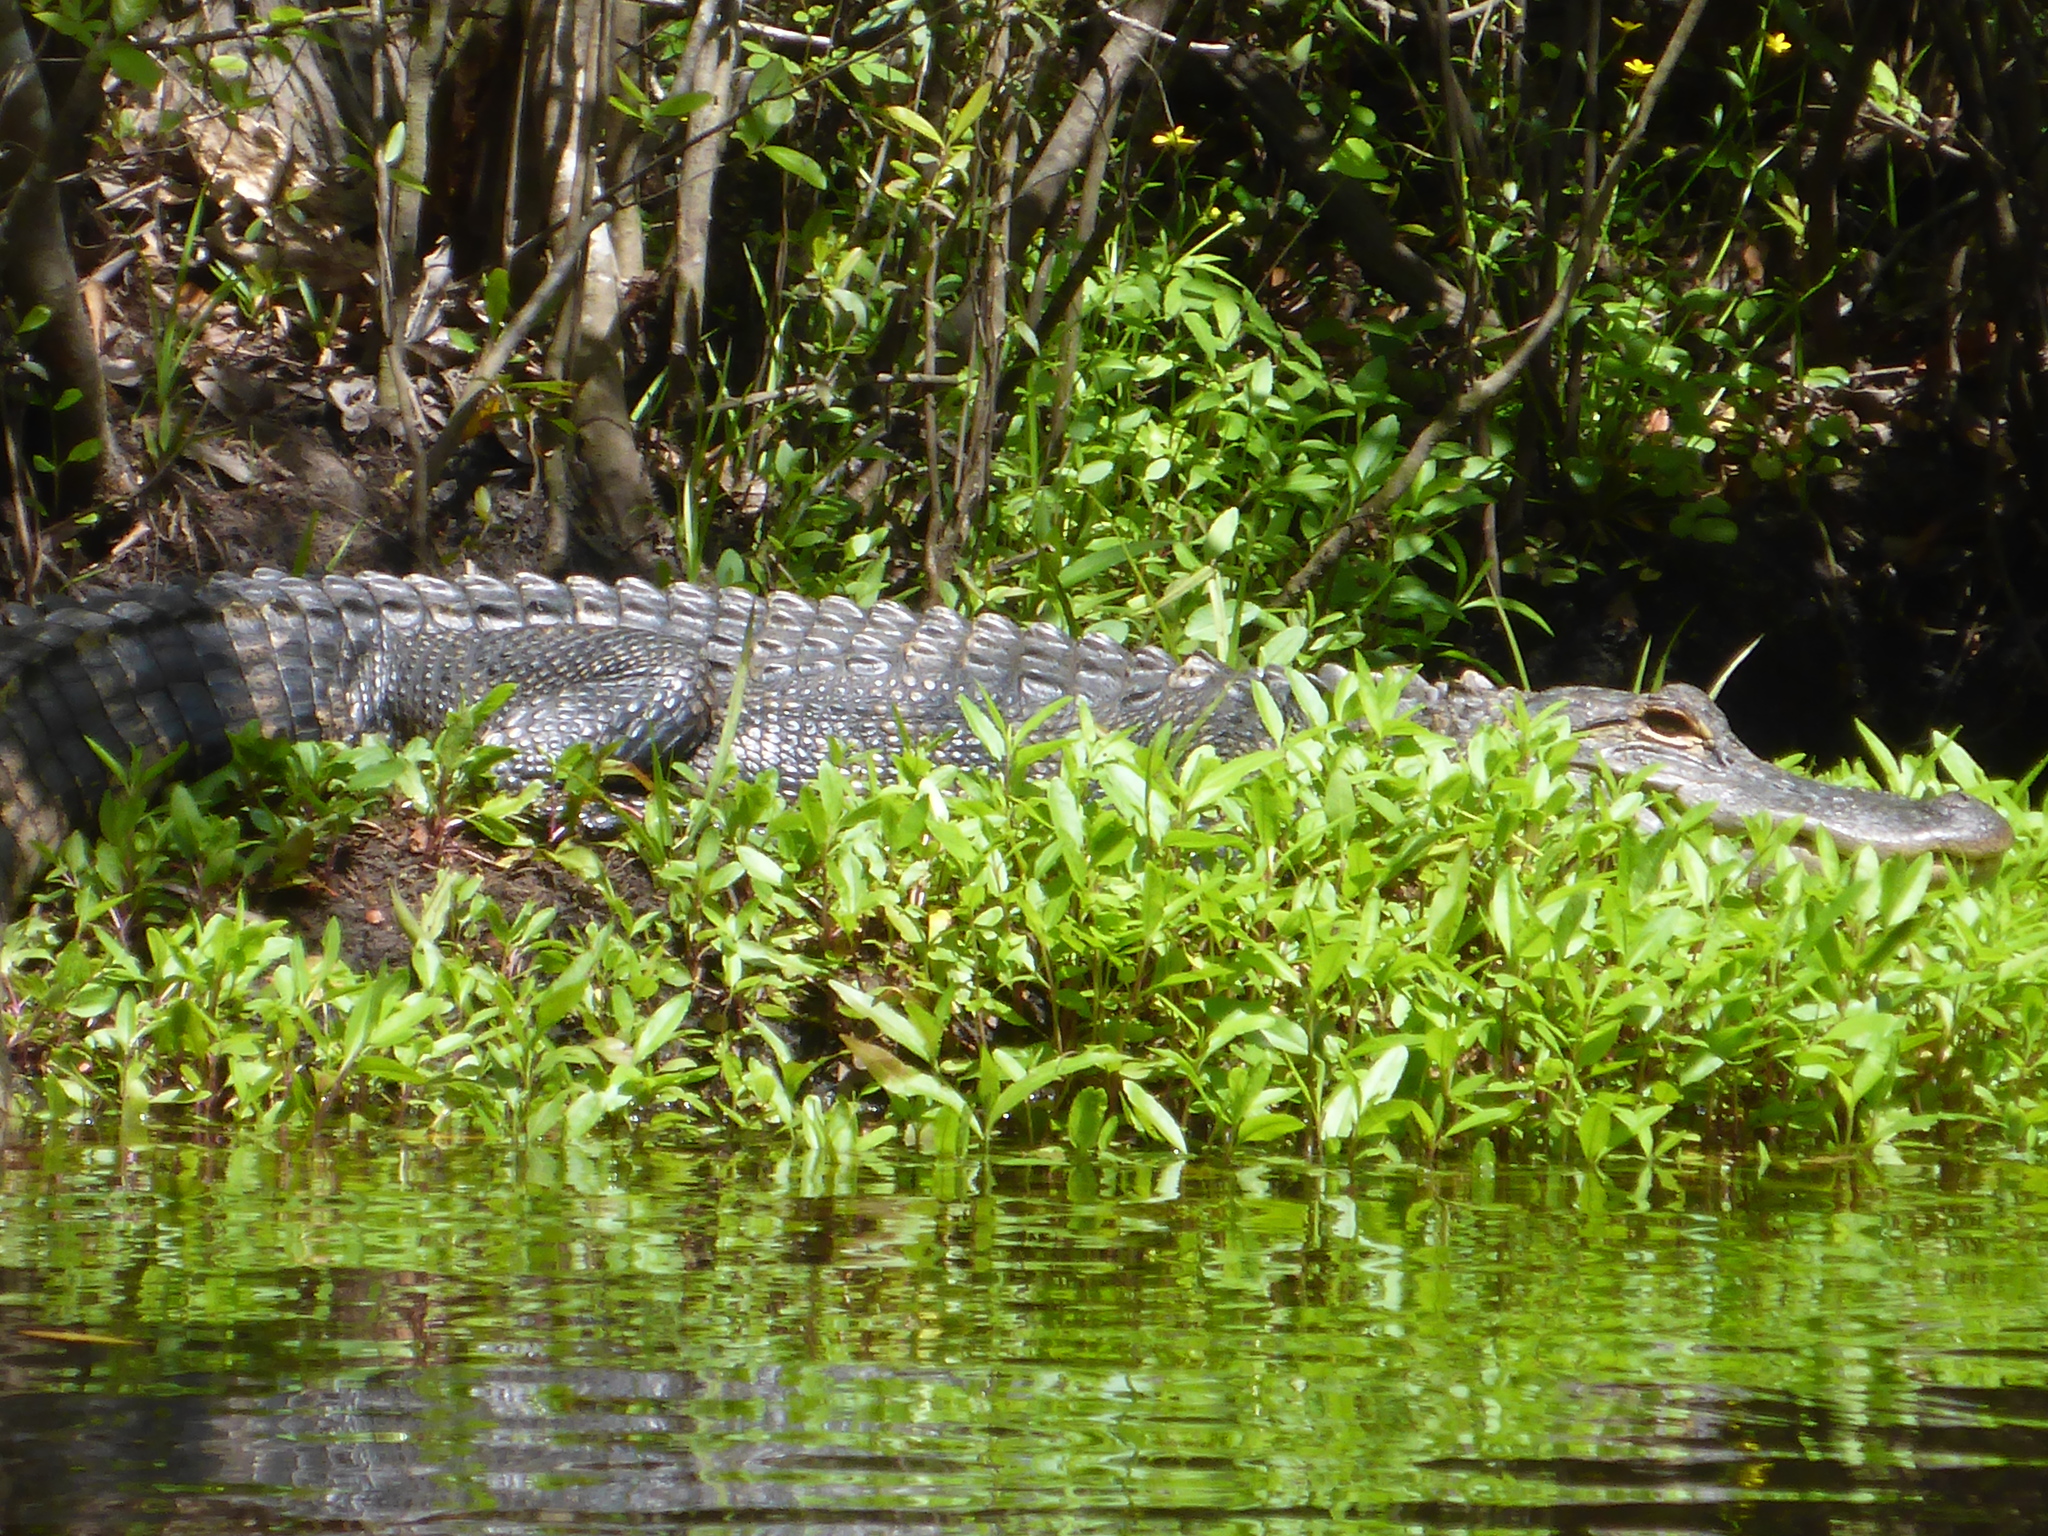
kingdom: Animalia
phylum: Chordata
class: Crocodylia
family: Alligatoridae
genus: Alligator
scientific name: Alligator mississippiensis
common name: American alligator
